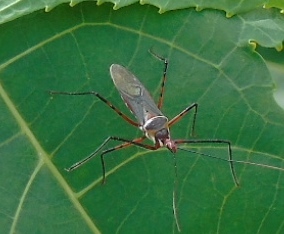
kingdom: Animalia
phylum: Arthropoda
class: Insecta
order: Hemiptera
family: Reduviidae
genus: Zelus
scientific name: Zelus grassans
